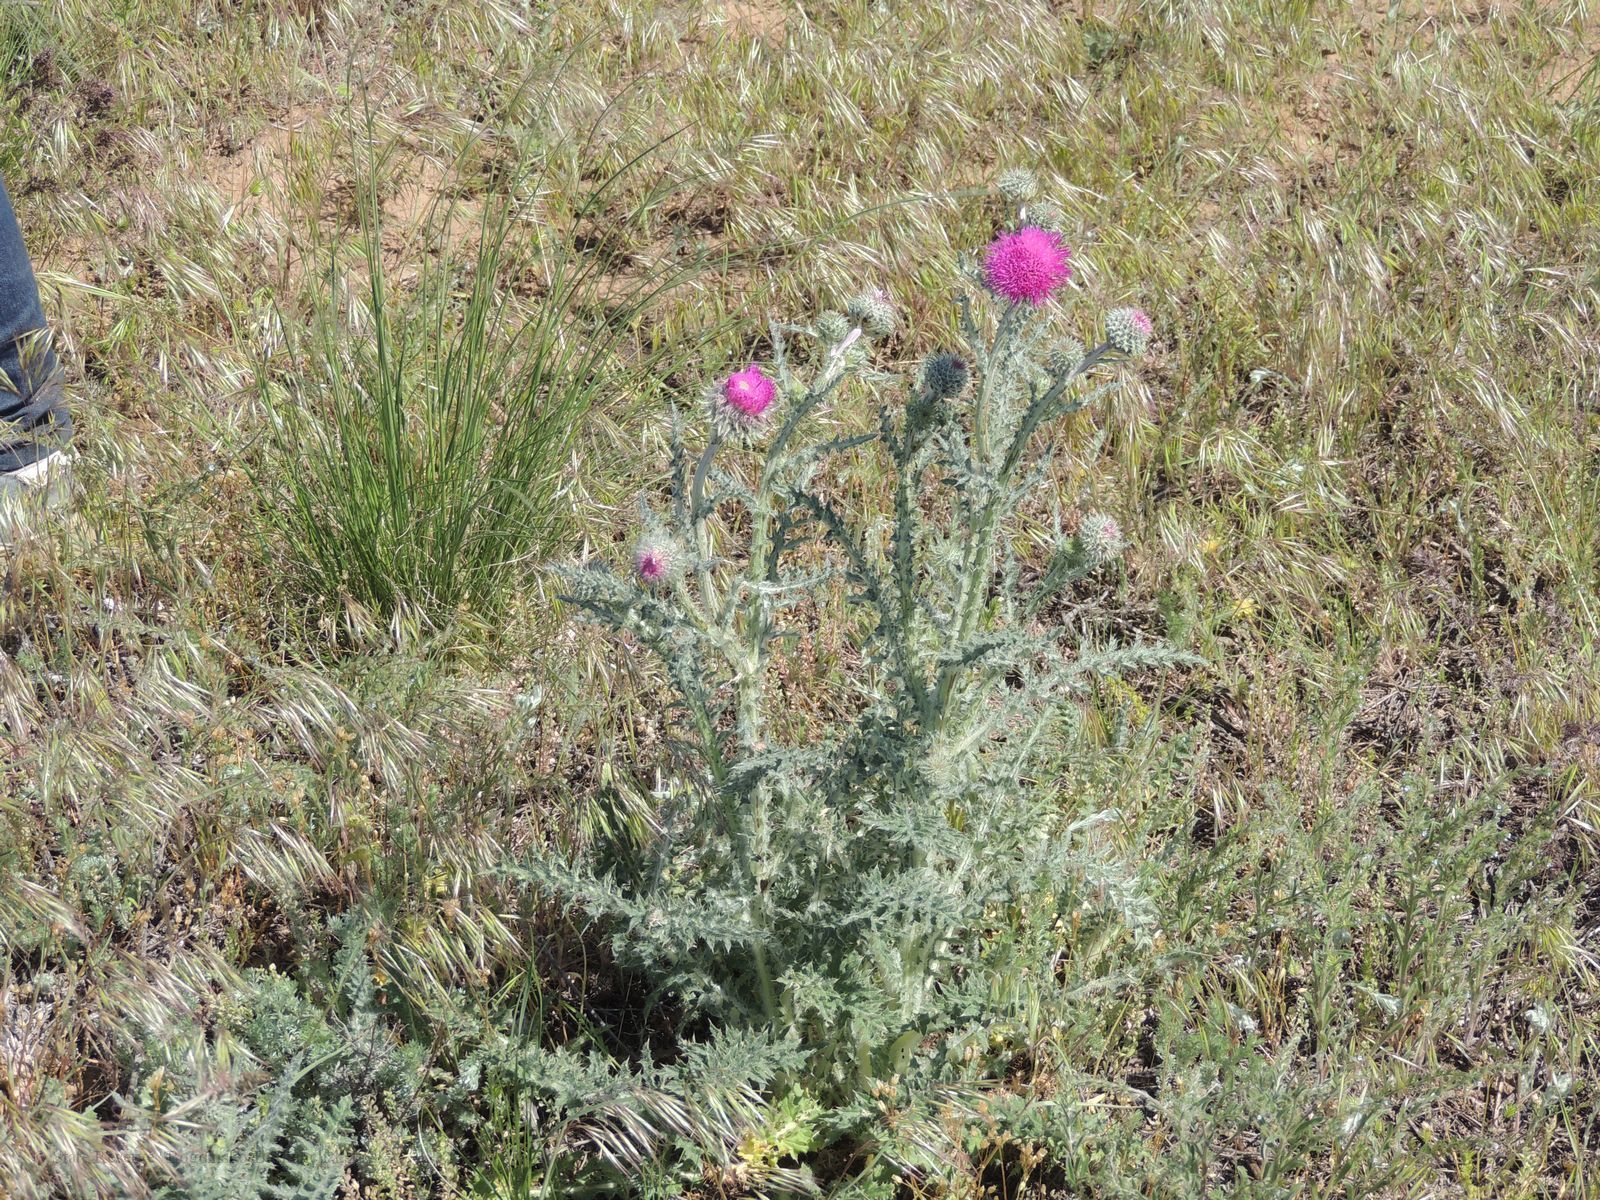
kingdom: Plantae
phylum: Tracheophyta
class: Magnoliopsida
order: Asterales
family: Asteraceae
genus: Carduus
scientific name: Carduus uncinatus
